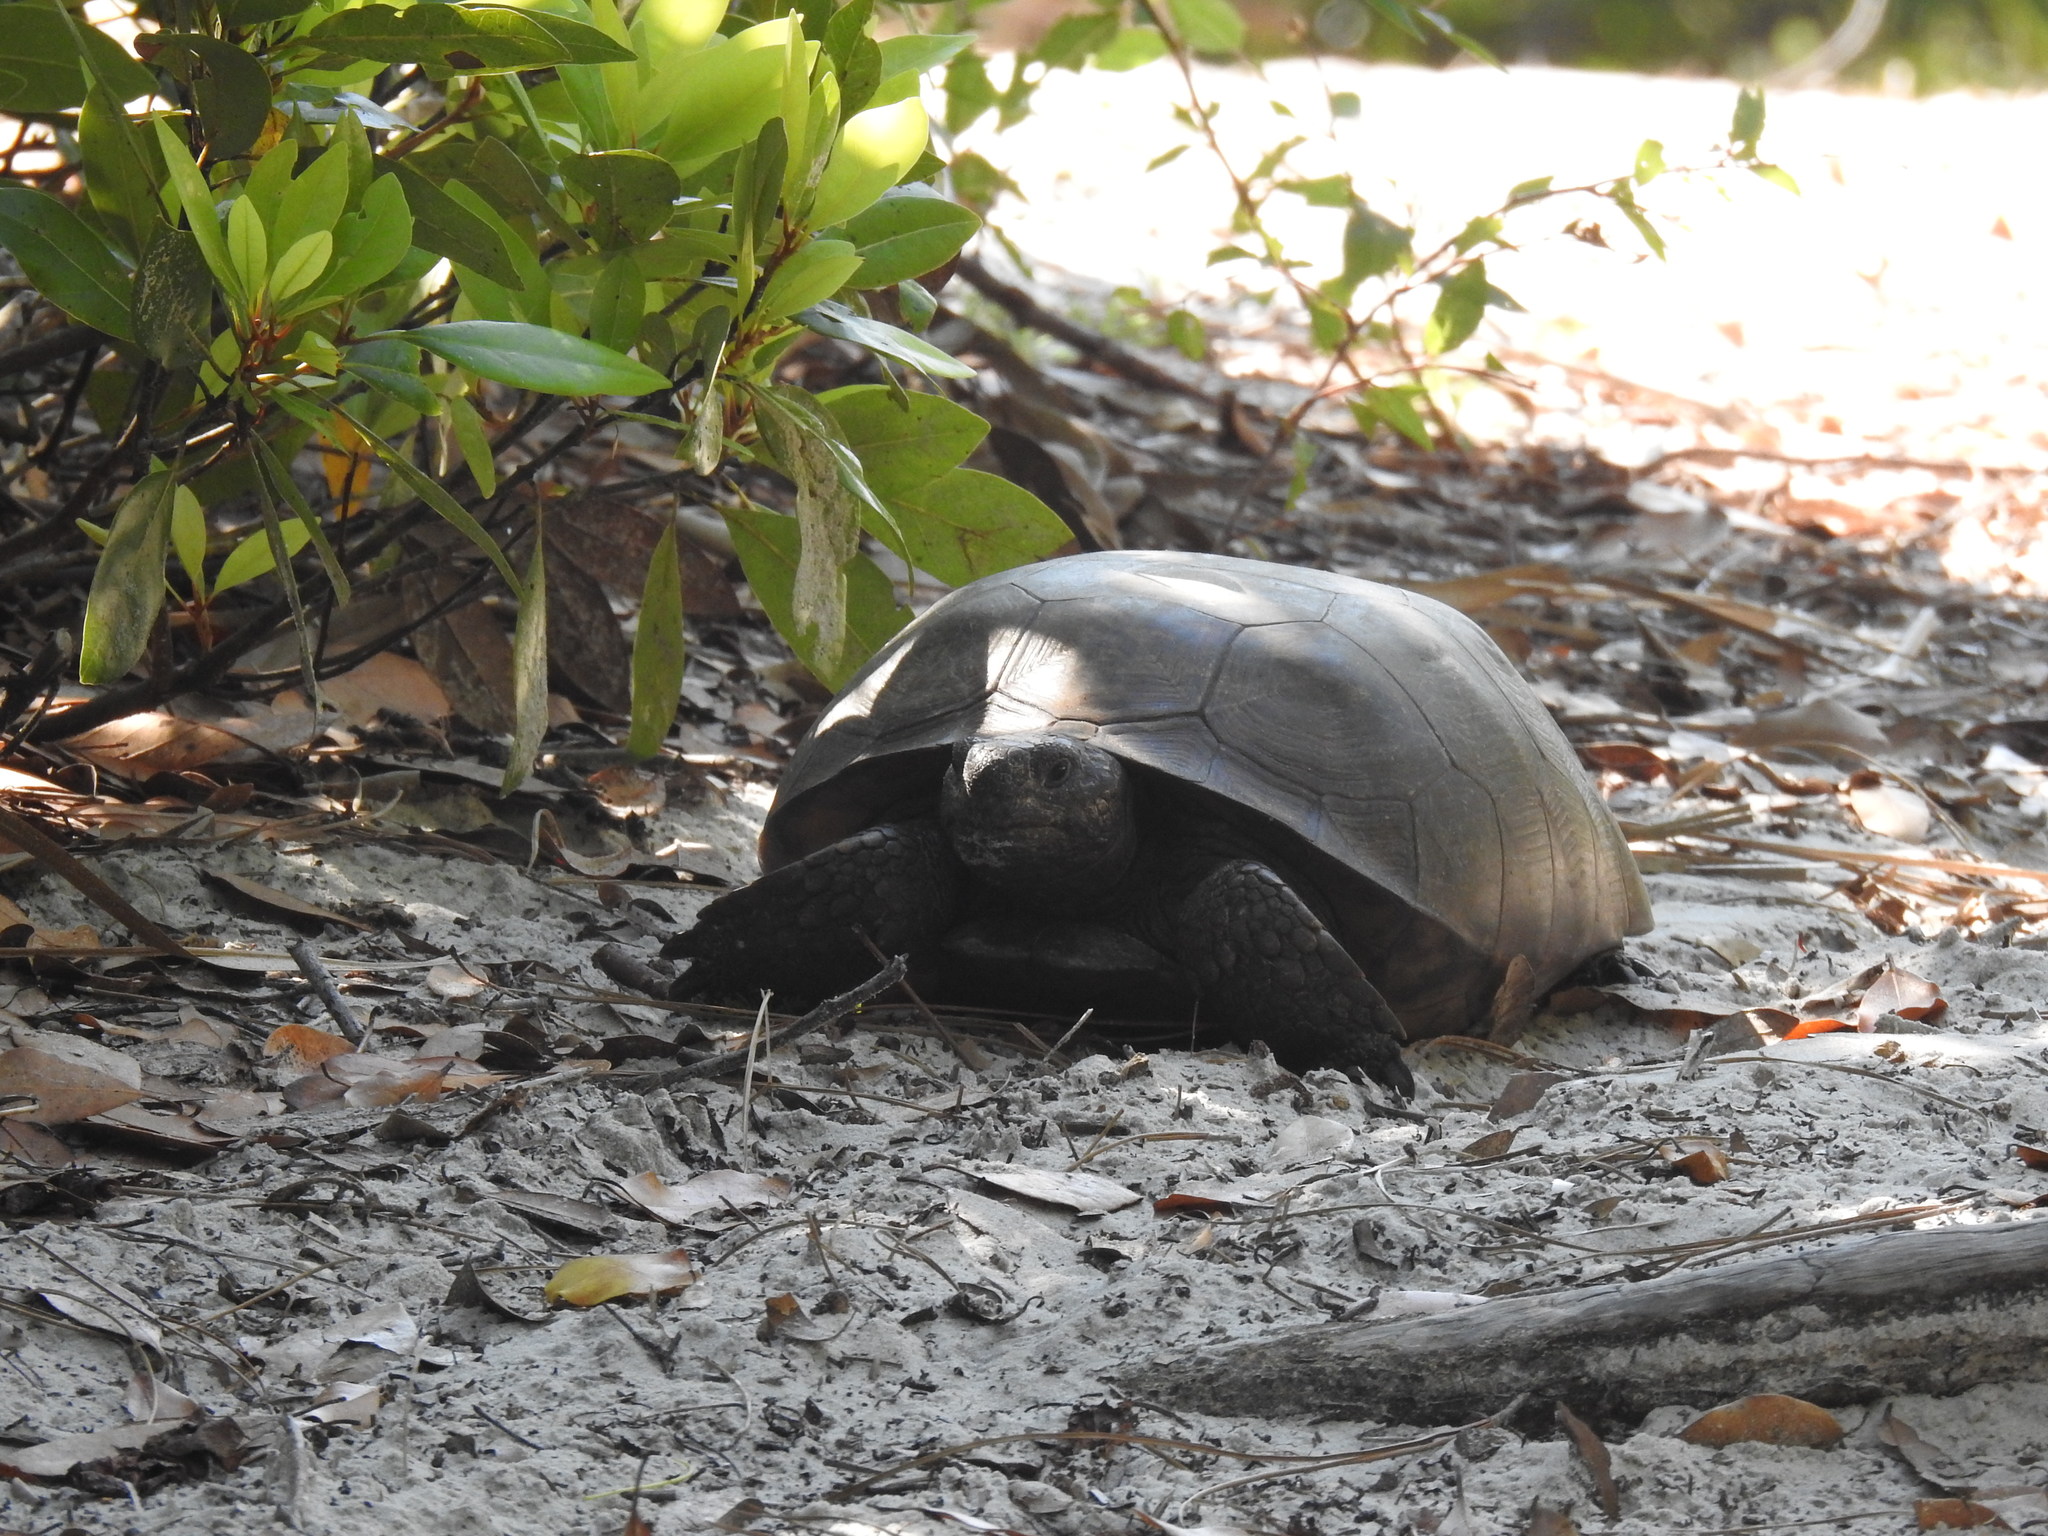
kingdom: Animalia
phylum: Chordata
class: Testudines
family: Testudinidae
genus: Gopherus
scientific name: Gopherus polyphemus
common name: Florida gopher tortoise
